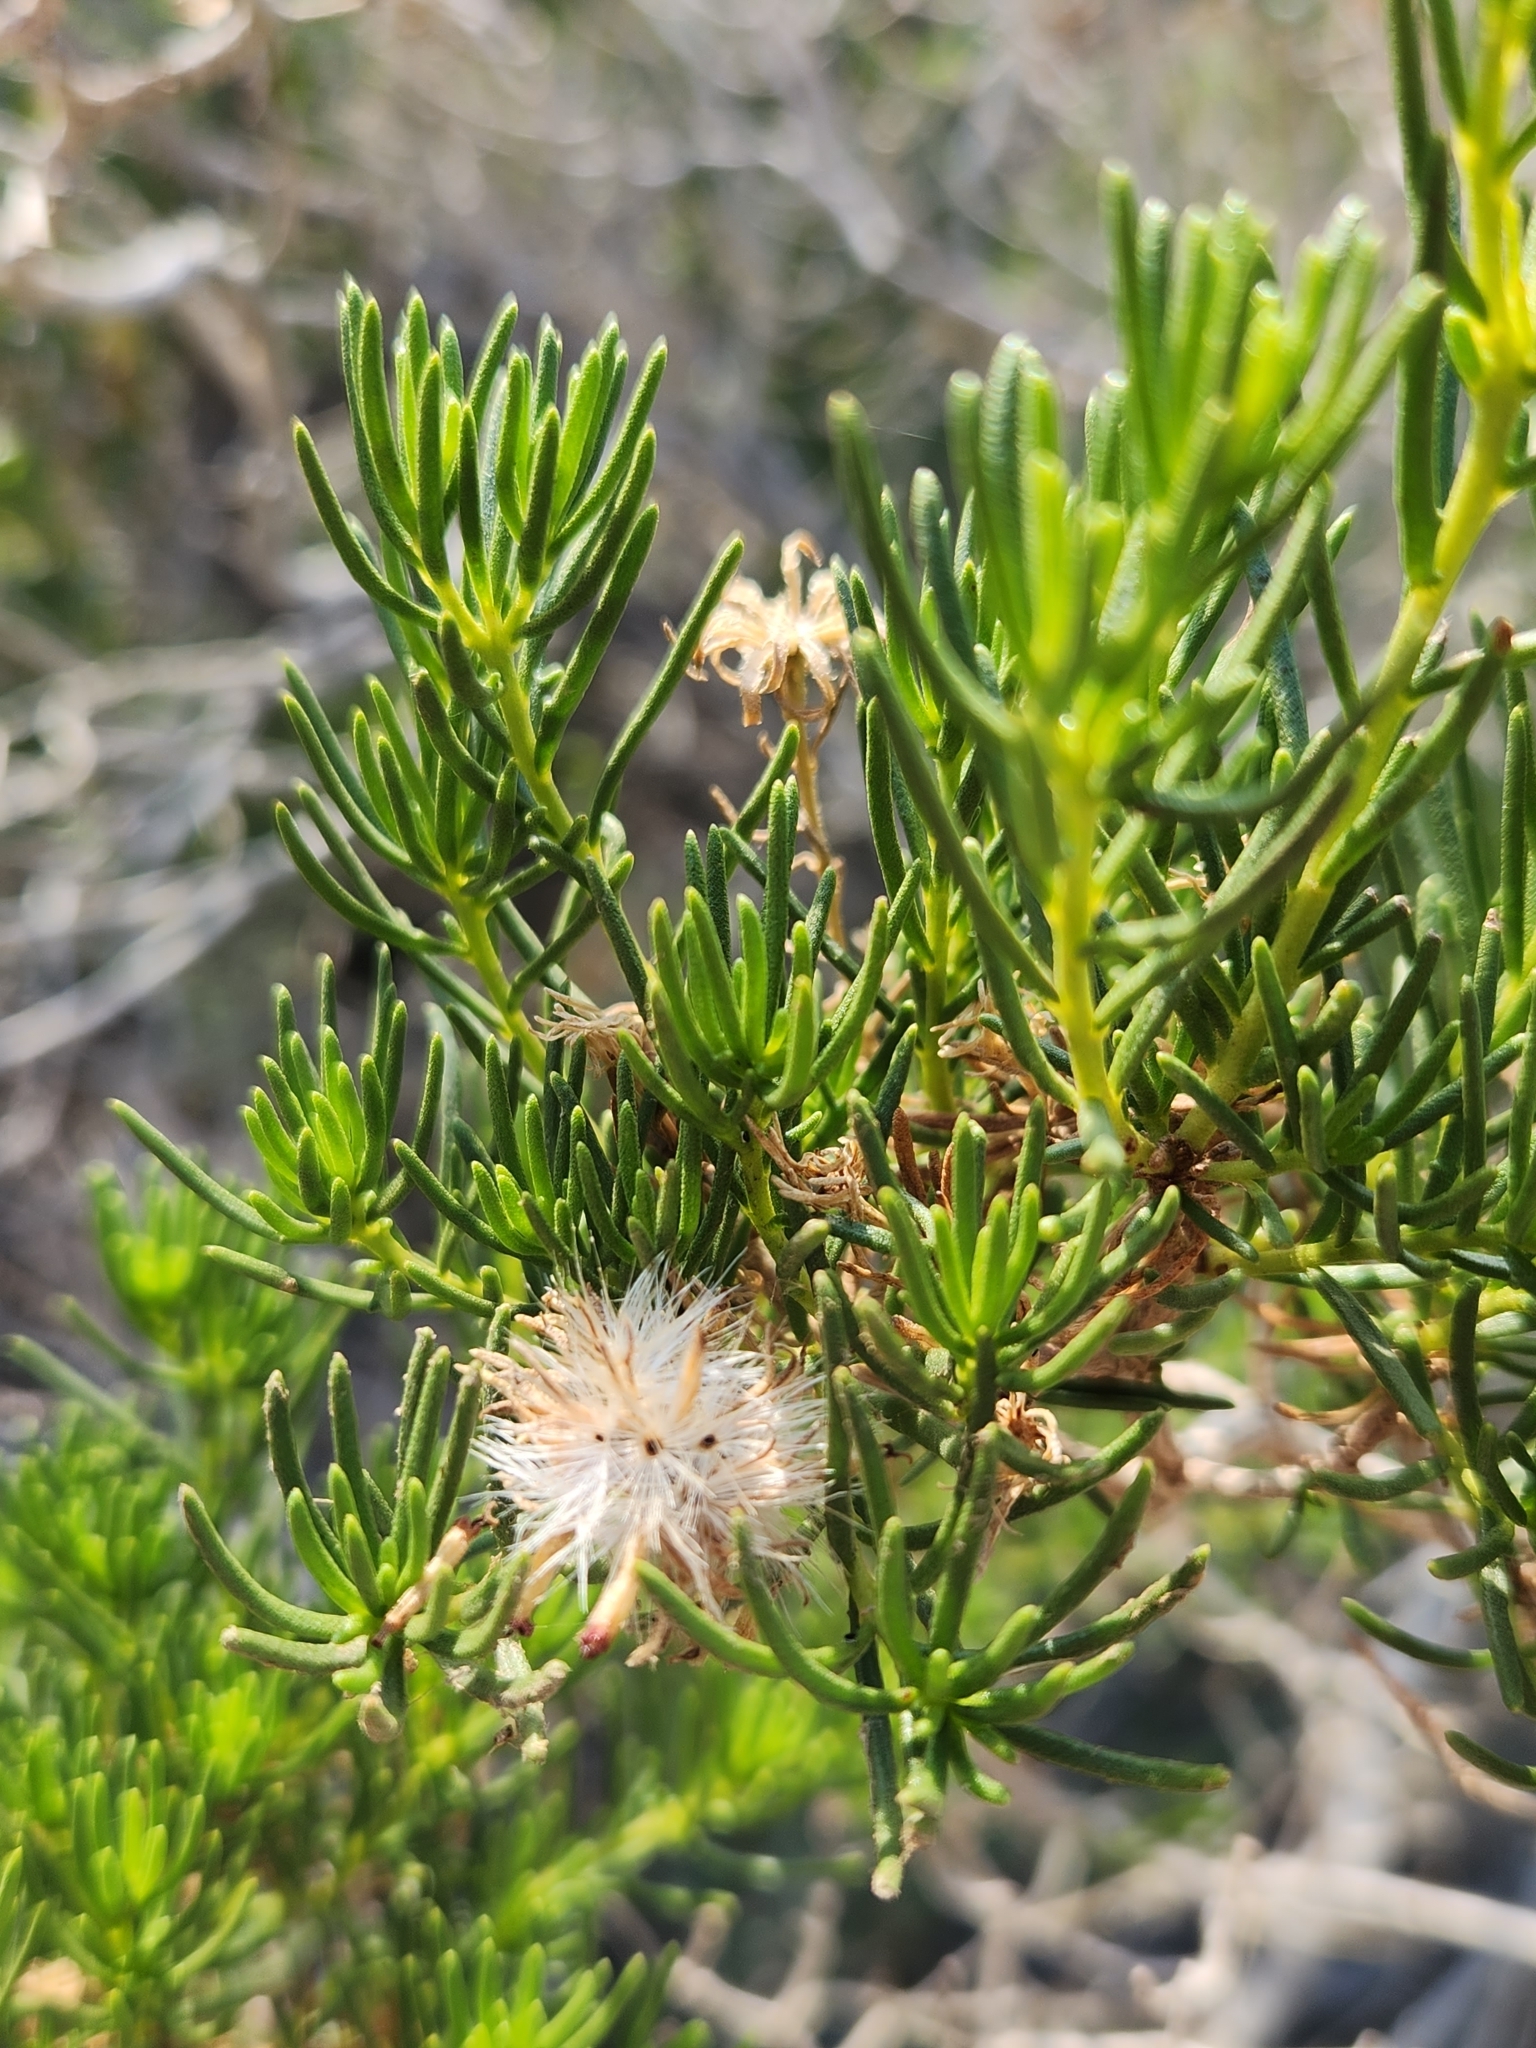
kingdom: Plantae
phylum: Tracheophyta
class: Magnoliopsida
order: Asterales
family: Asteraceae
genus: Peucephyllum
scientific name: Peucephyllum schottii
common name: Pygmy-cedar
